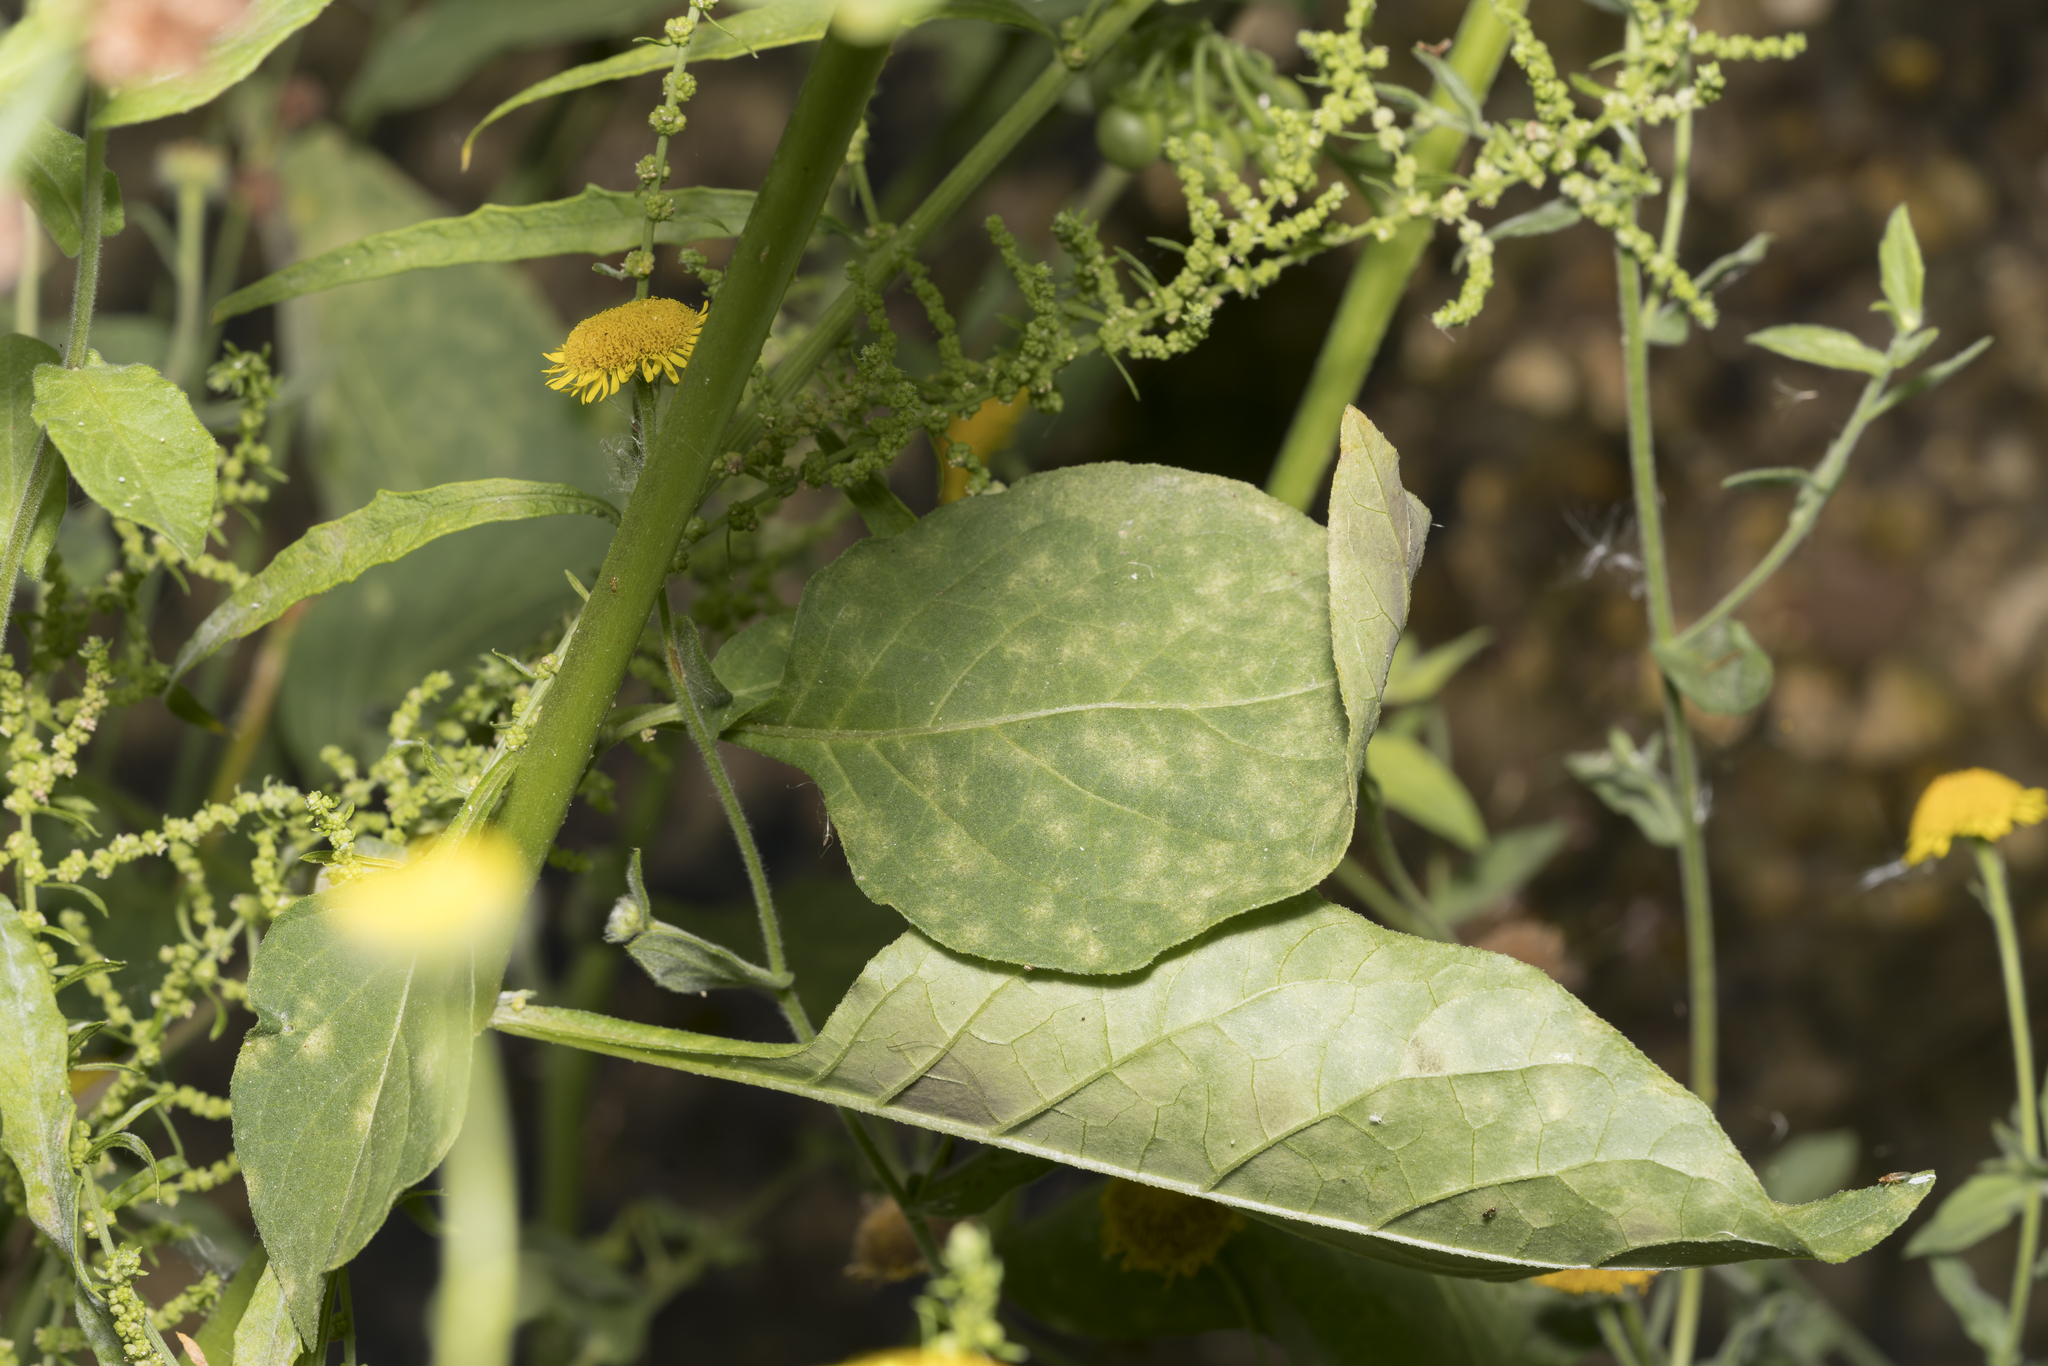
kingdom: Plantae
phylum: Tracheophyta
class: Magnoliopsida
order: Solanales
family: Solanaceae
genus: Solanum
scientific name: Solanum nigrum
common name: Black nightshade
